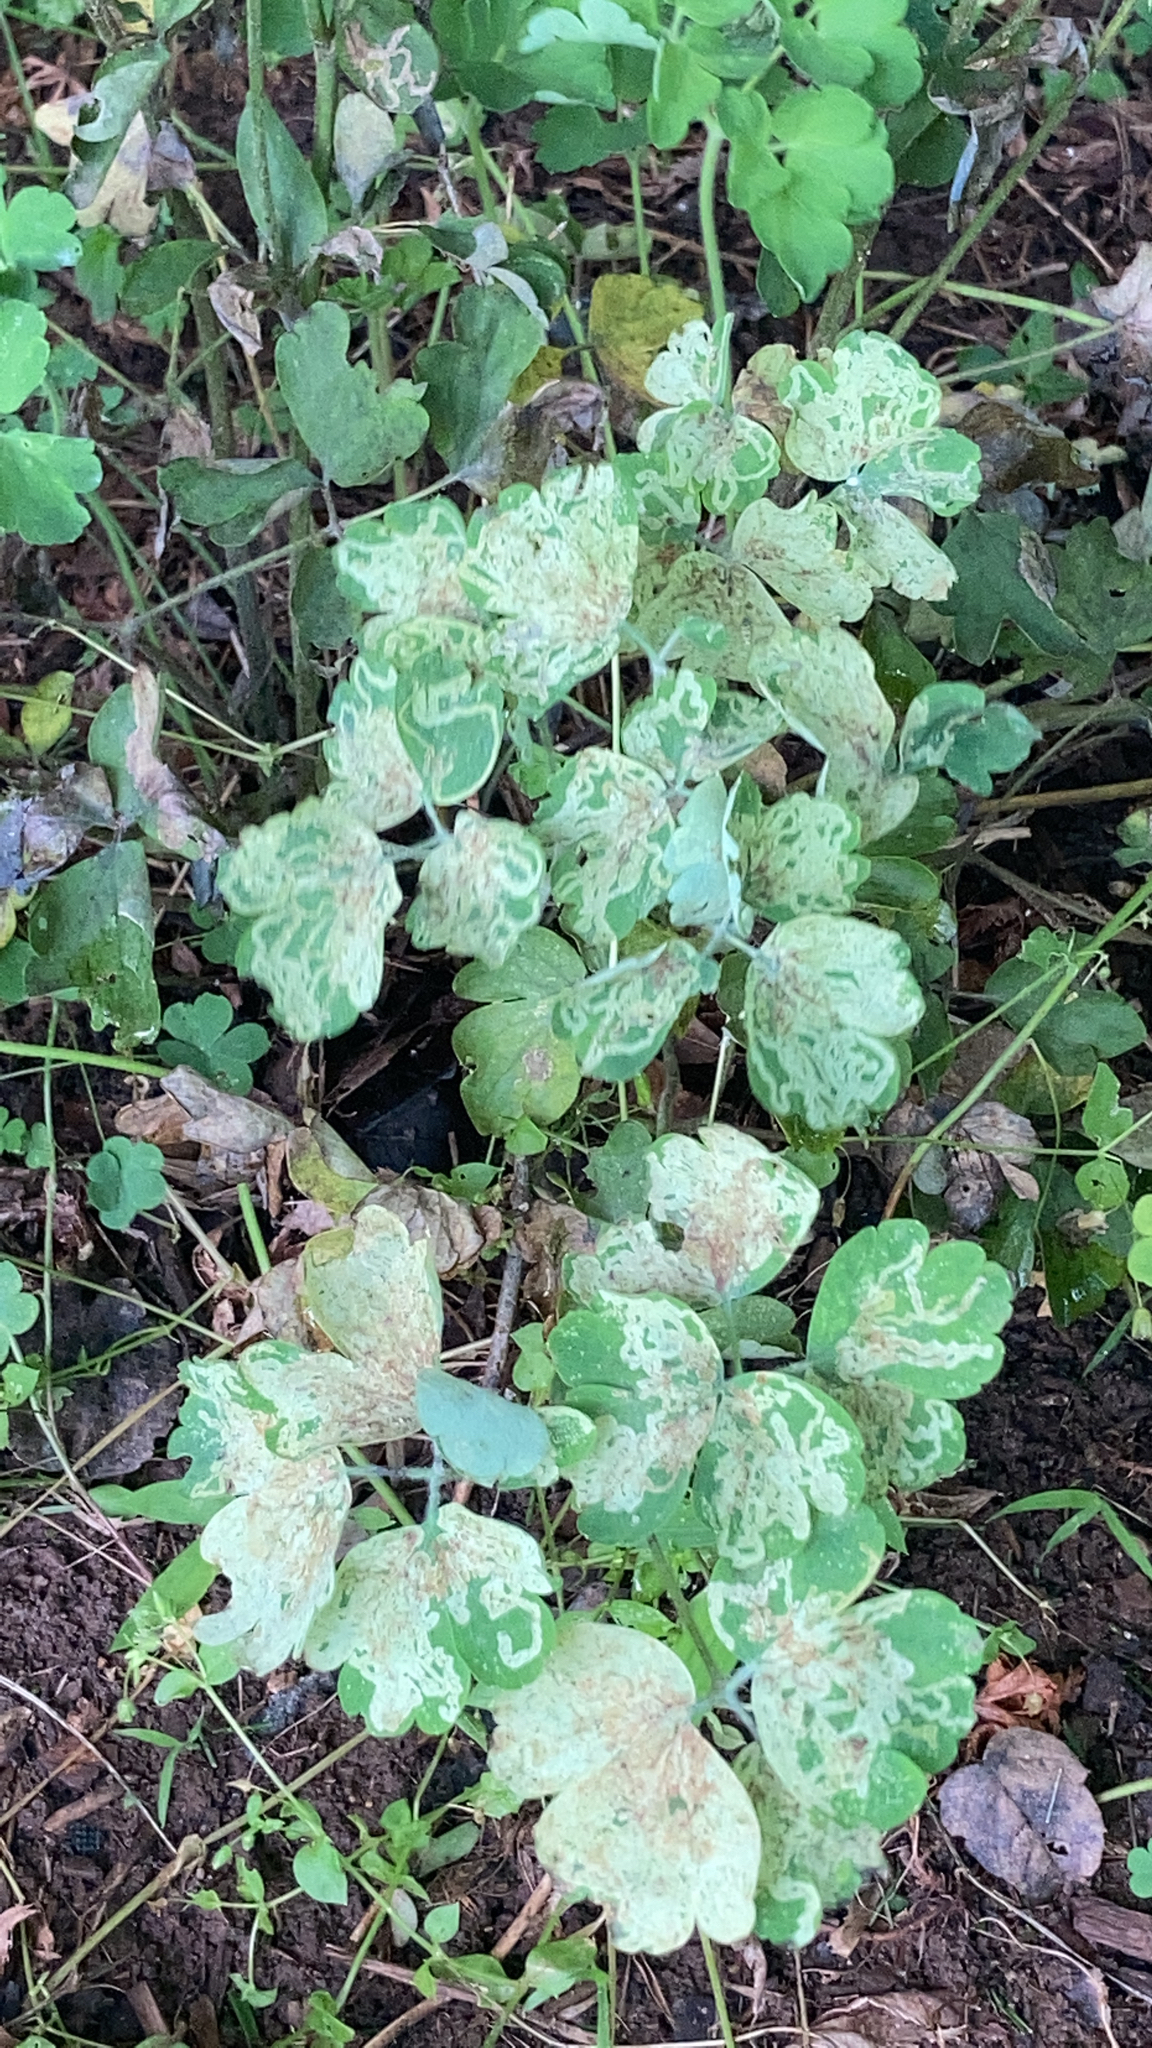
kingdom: Plantae
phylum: Tracheophyta
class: Magnoliopsida
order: Ranunculales
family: Papaveraceae
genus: Chelidonium
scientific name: Chelidonium majus
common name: Greater celandine
